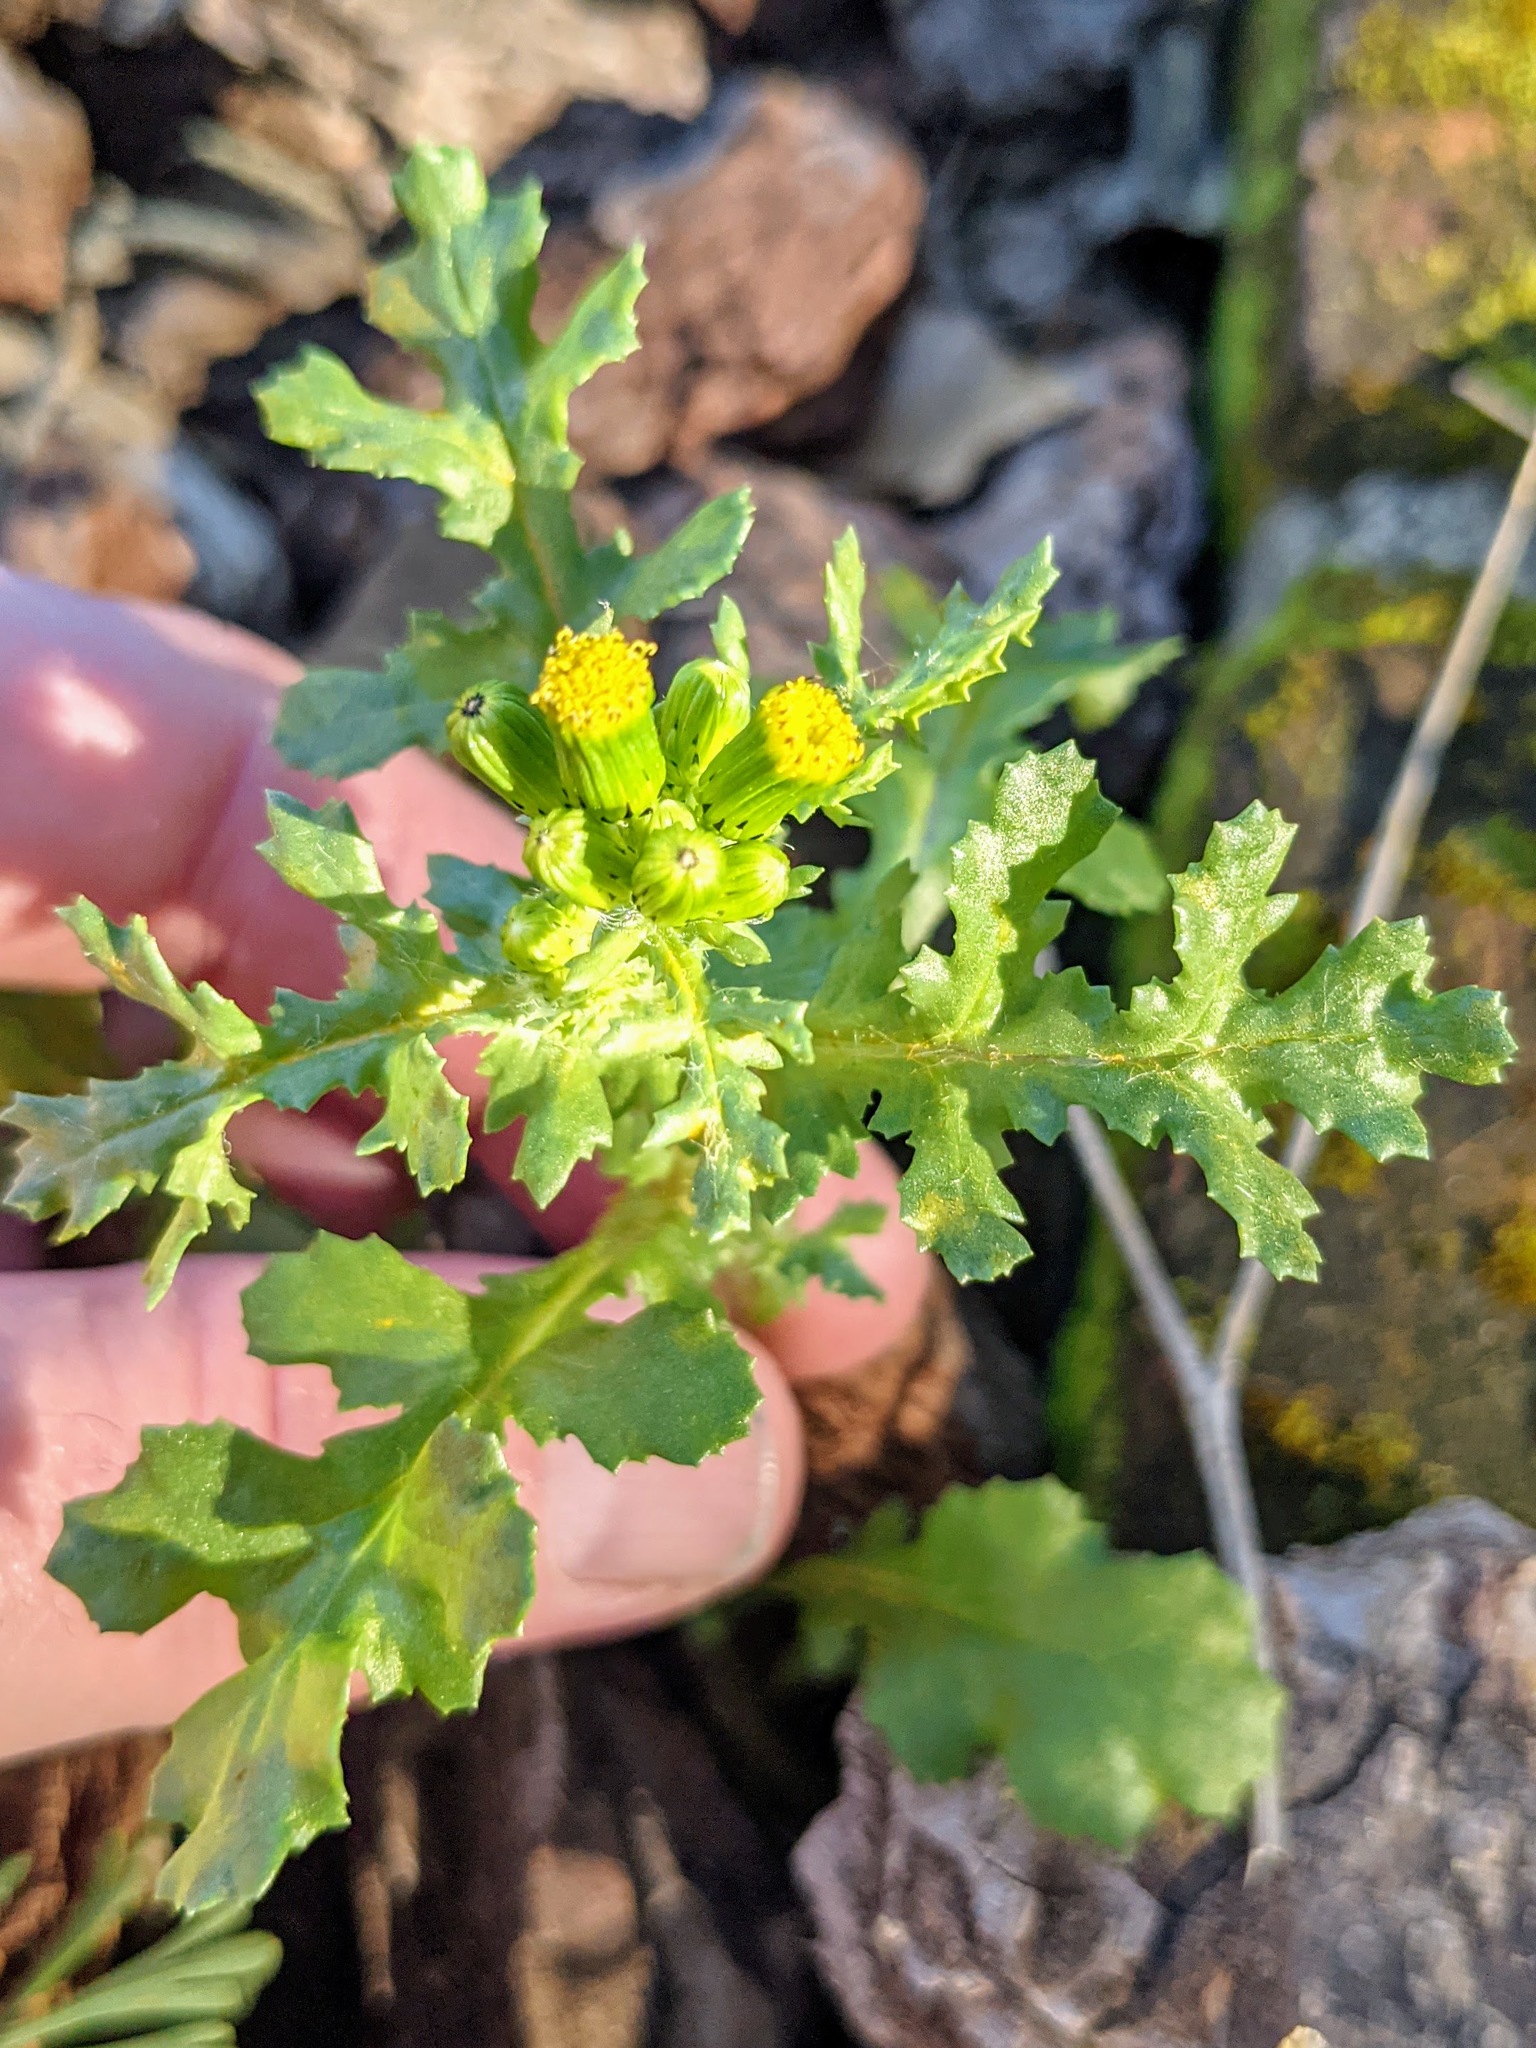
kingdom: Plantae
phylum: Tracheophyta
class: Magnoliopsida
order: Asterales
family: Asteraceae
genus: Senecio
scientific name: Senecio vulgaris
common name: Old-man-in-the-spring
